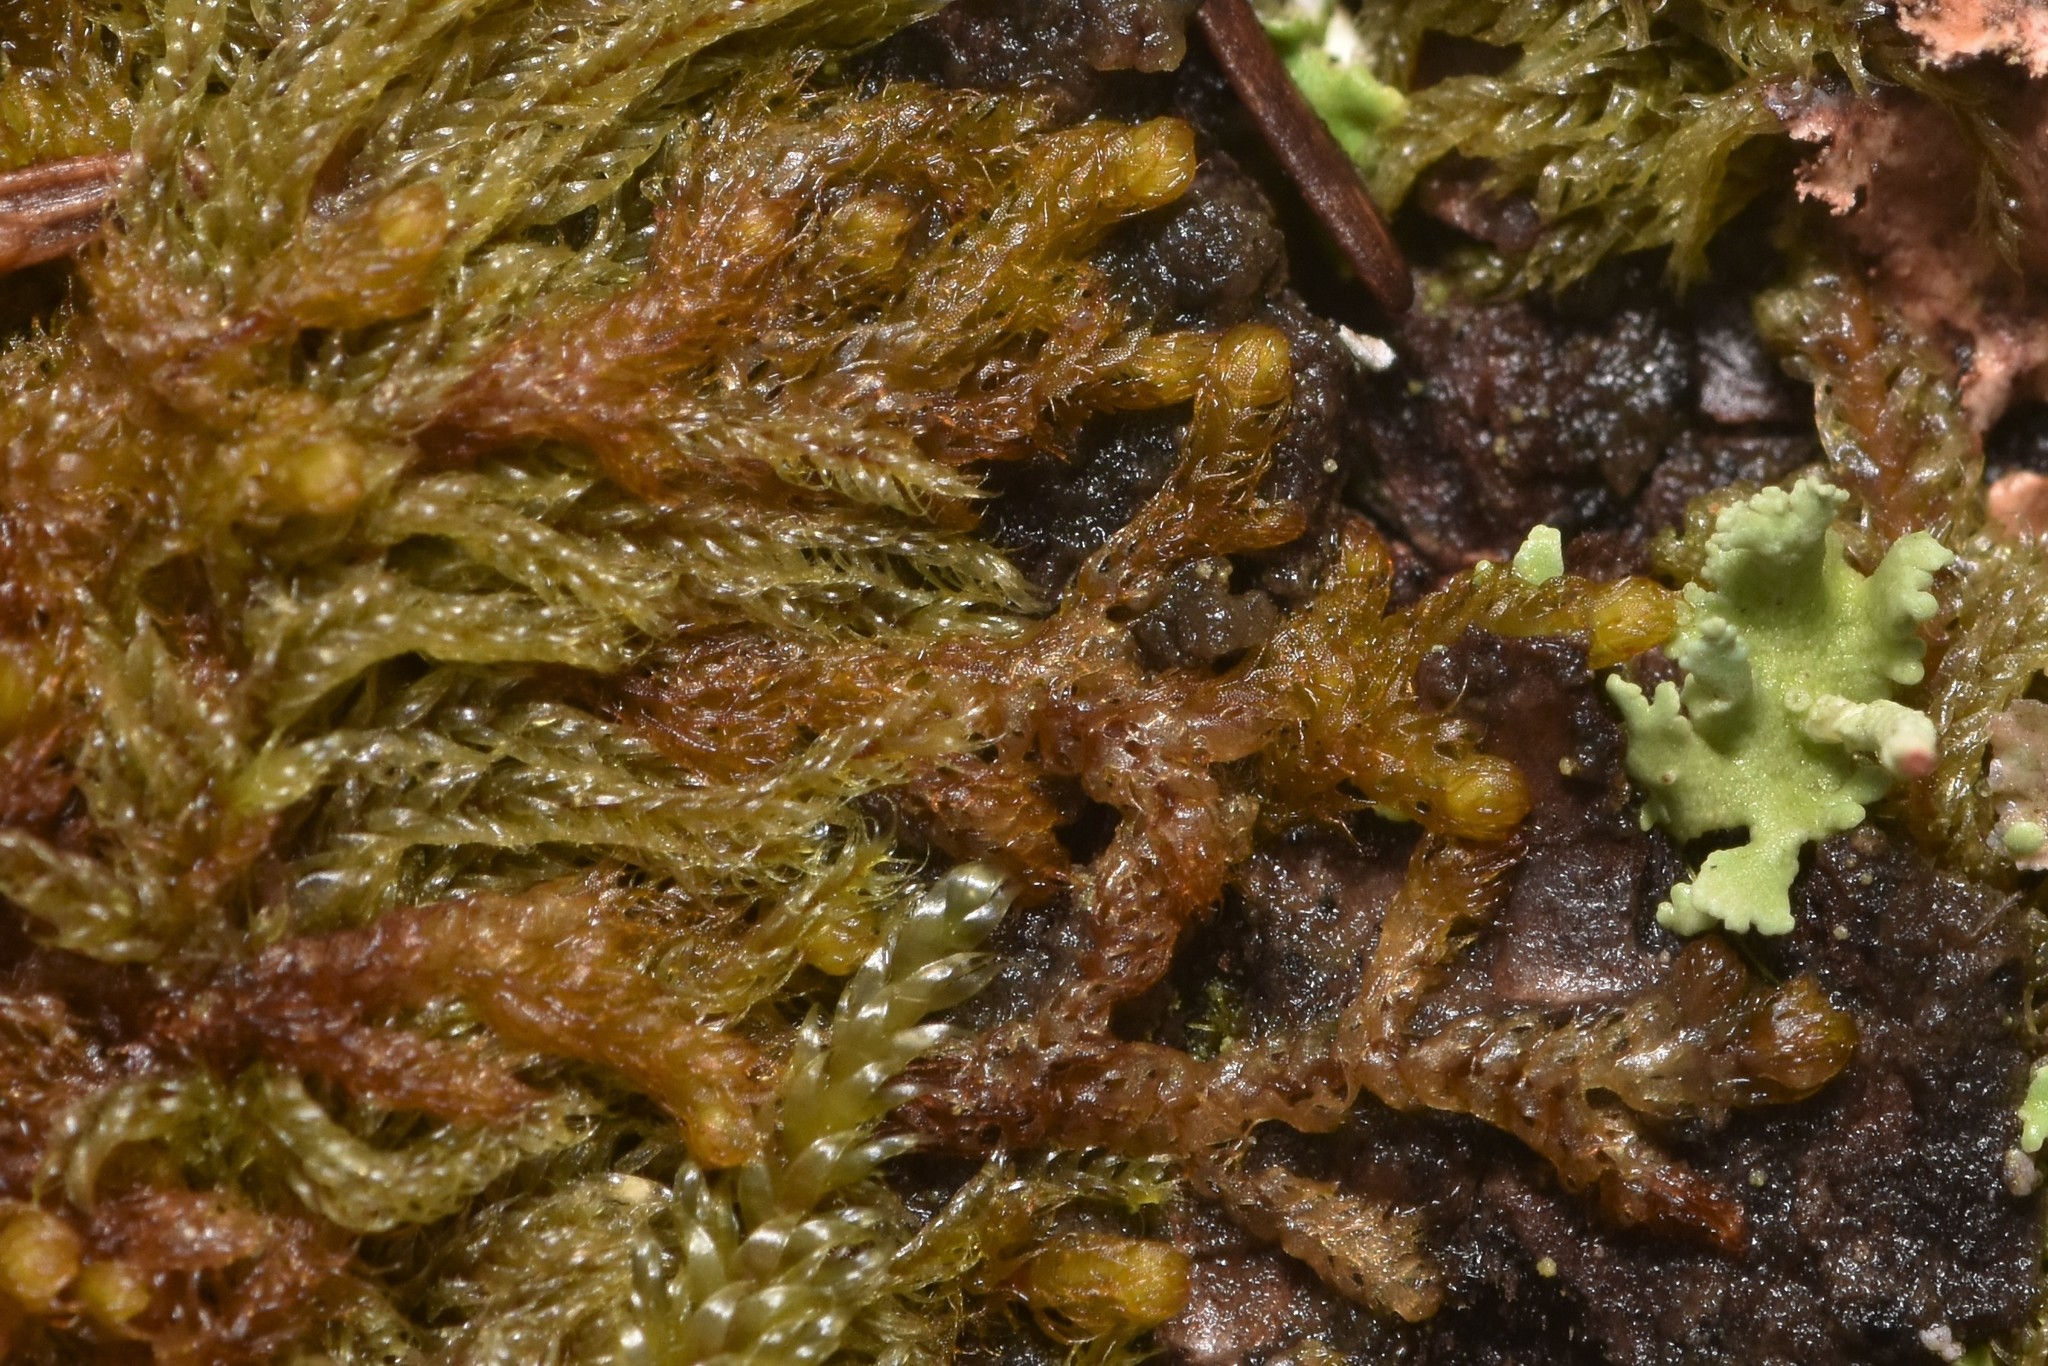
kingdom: Plantae
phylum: Marchantiophyta
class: Jungermanniopsida
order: Ptilidiales
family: Ptilidiaceae
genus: Ptilidium
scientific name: Ptilidium californicum
